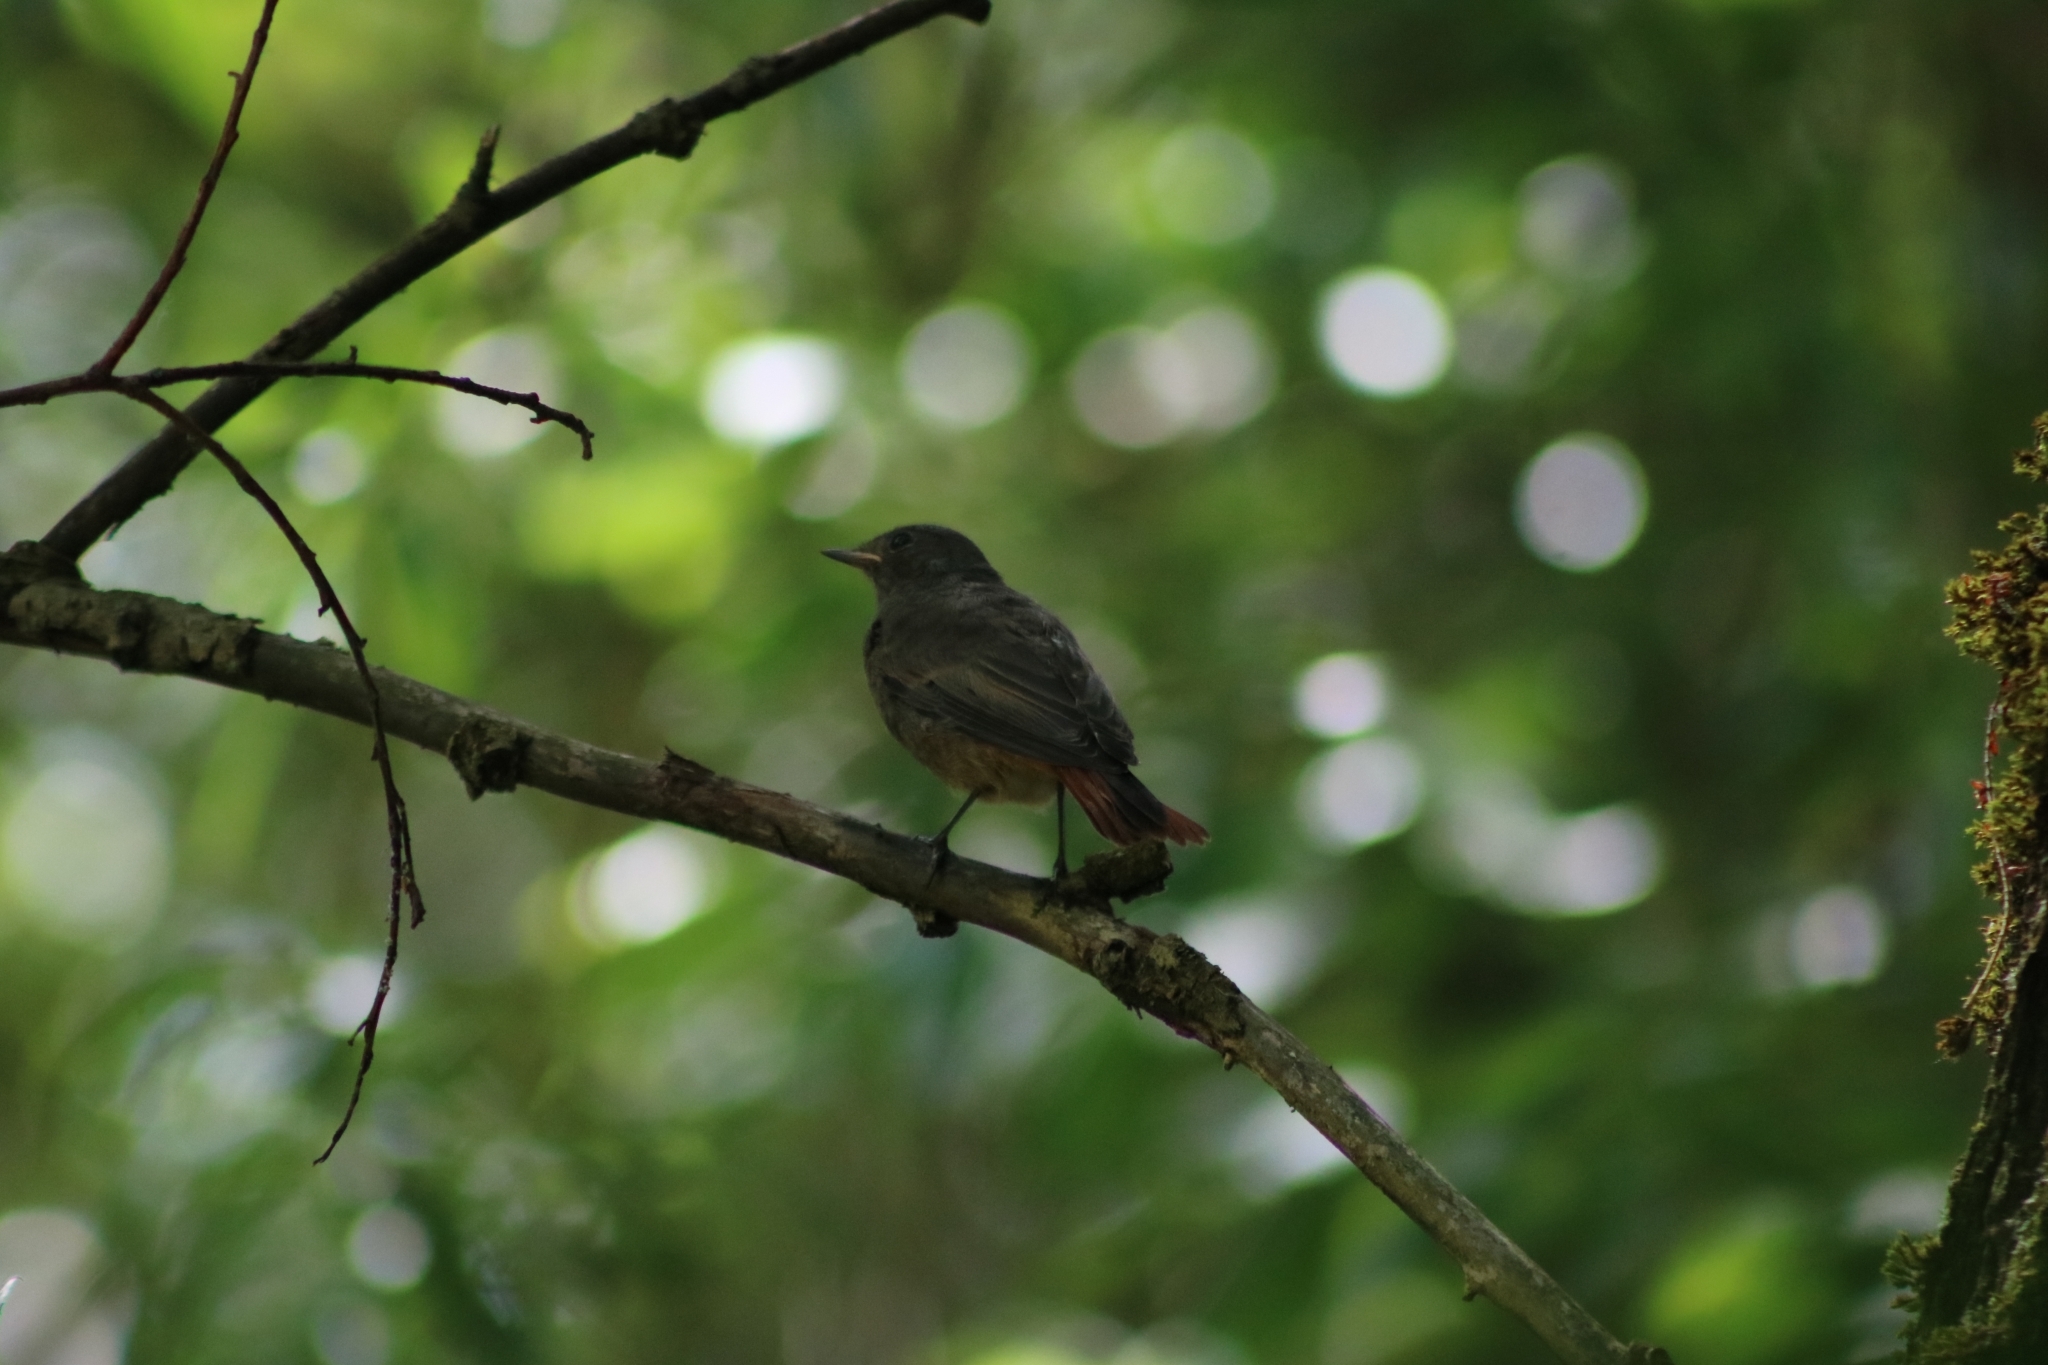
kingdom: Animalia
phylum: Chordata
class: Aves
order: Passeriformes
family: Muscicapidae
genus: Phoenicurus
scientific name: Phoenicurus ochruros
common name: Black redstart
